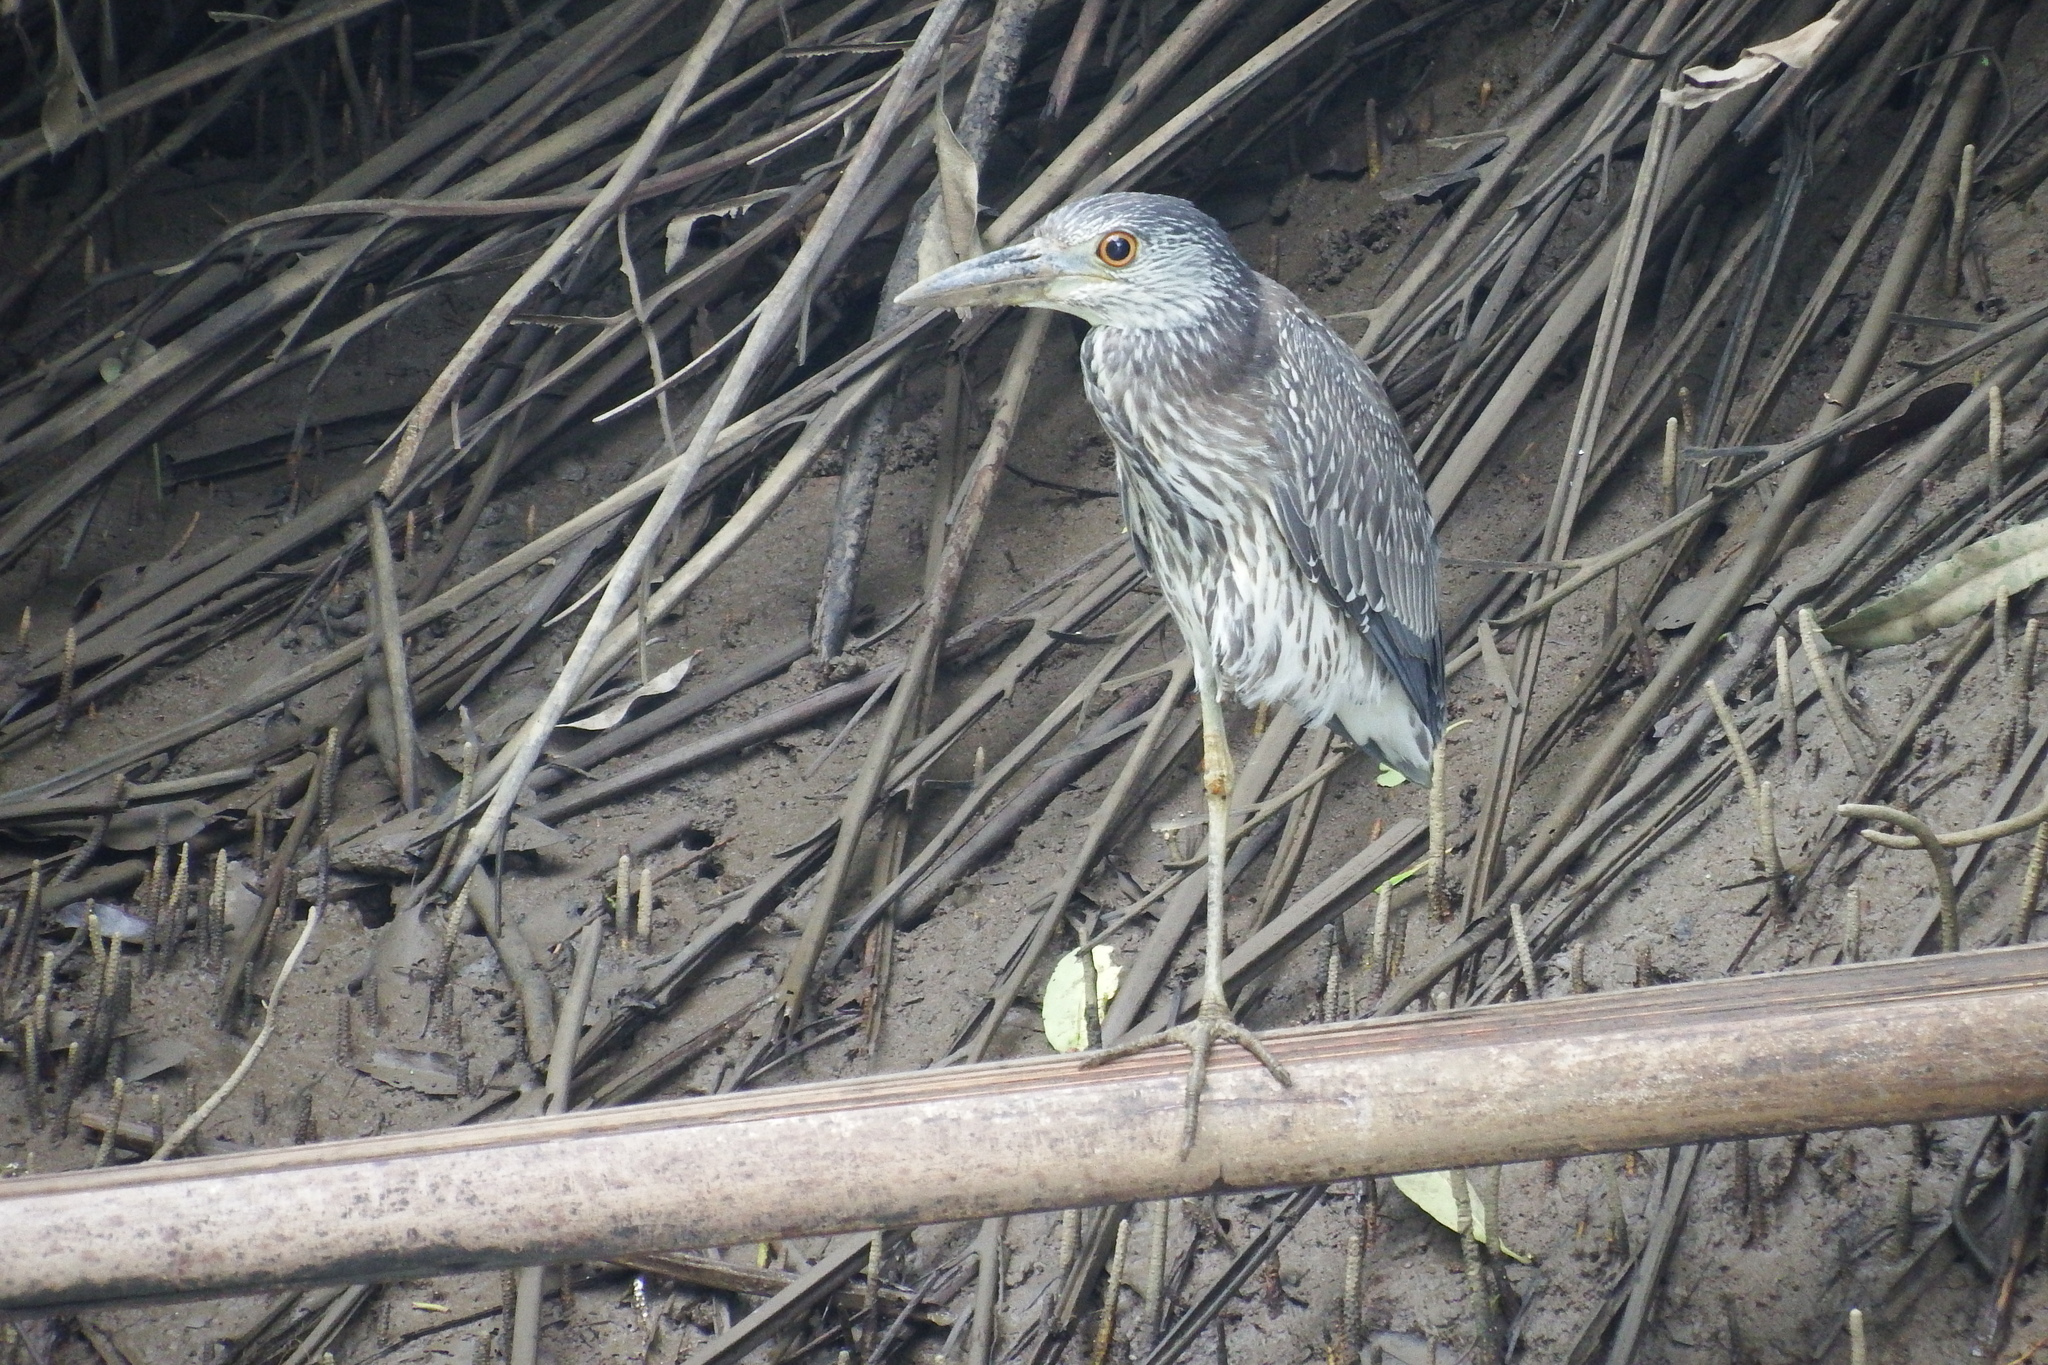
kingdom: Animalia
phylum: Chordata
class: Aves
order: Pelecaniformes
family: Ardeidae
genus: Nyctanassa
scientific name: Nyctanassa violacea
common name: Yellow-crowned night heron
